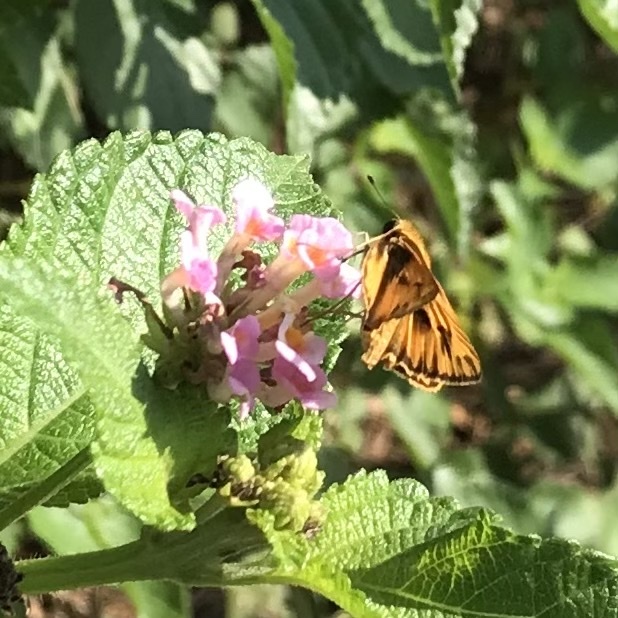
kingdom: Animalia
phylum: Arthropoda
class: Insecta
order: Lepidoptera
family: Hesperiidae
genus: Hylephila
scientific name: Hylephila phyleus
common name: Fiery skipper
